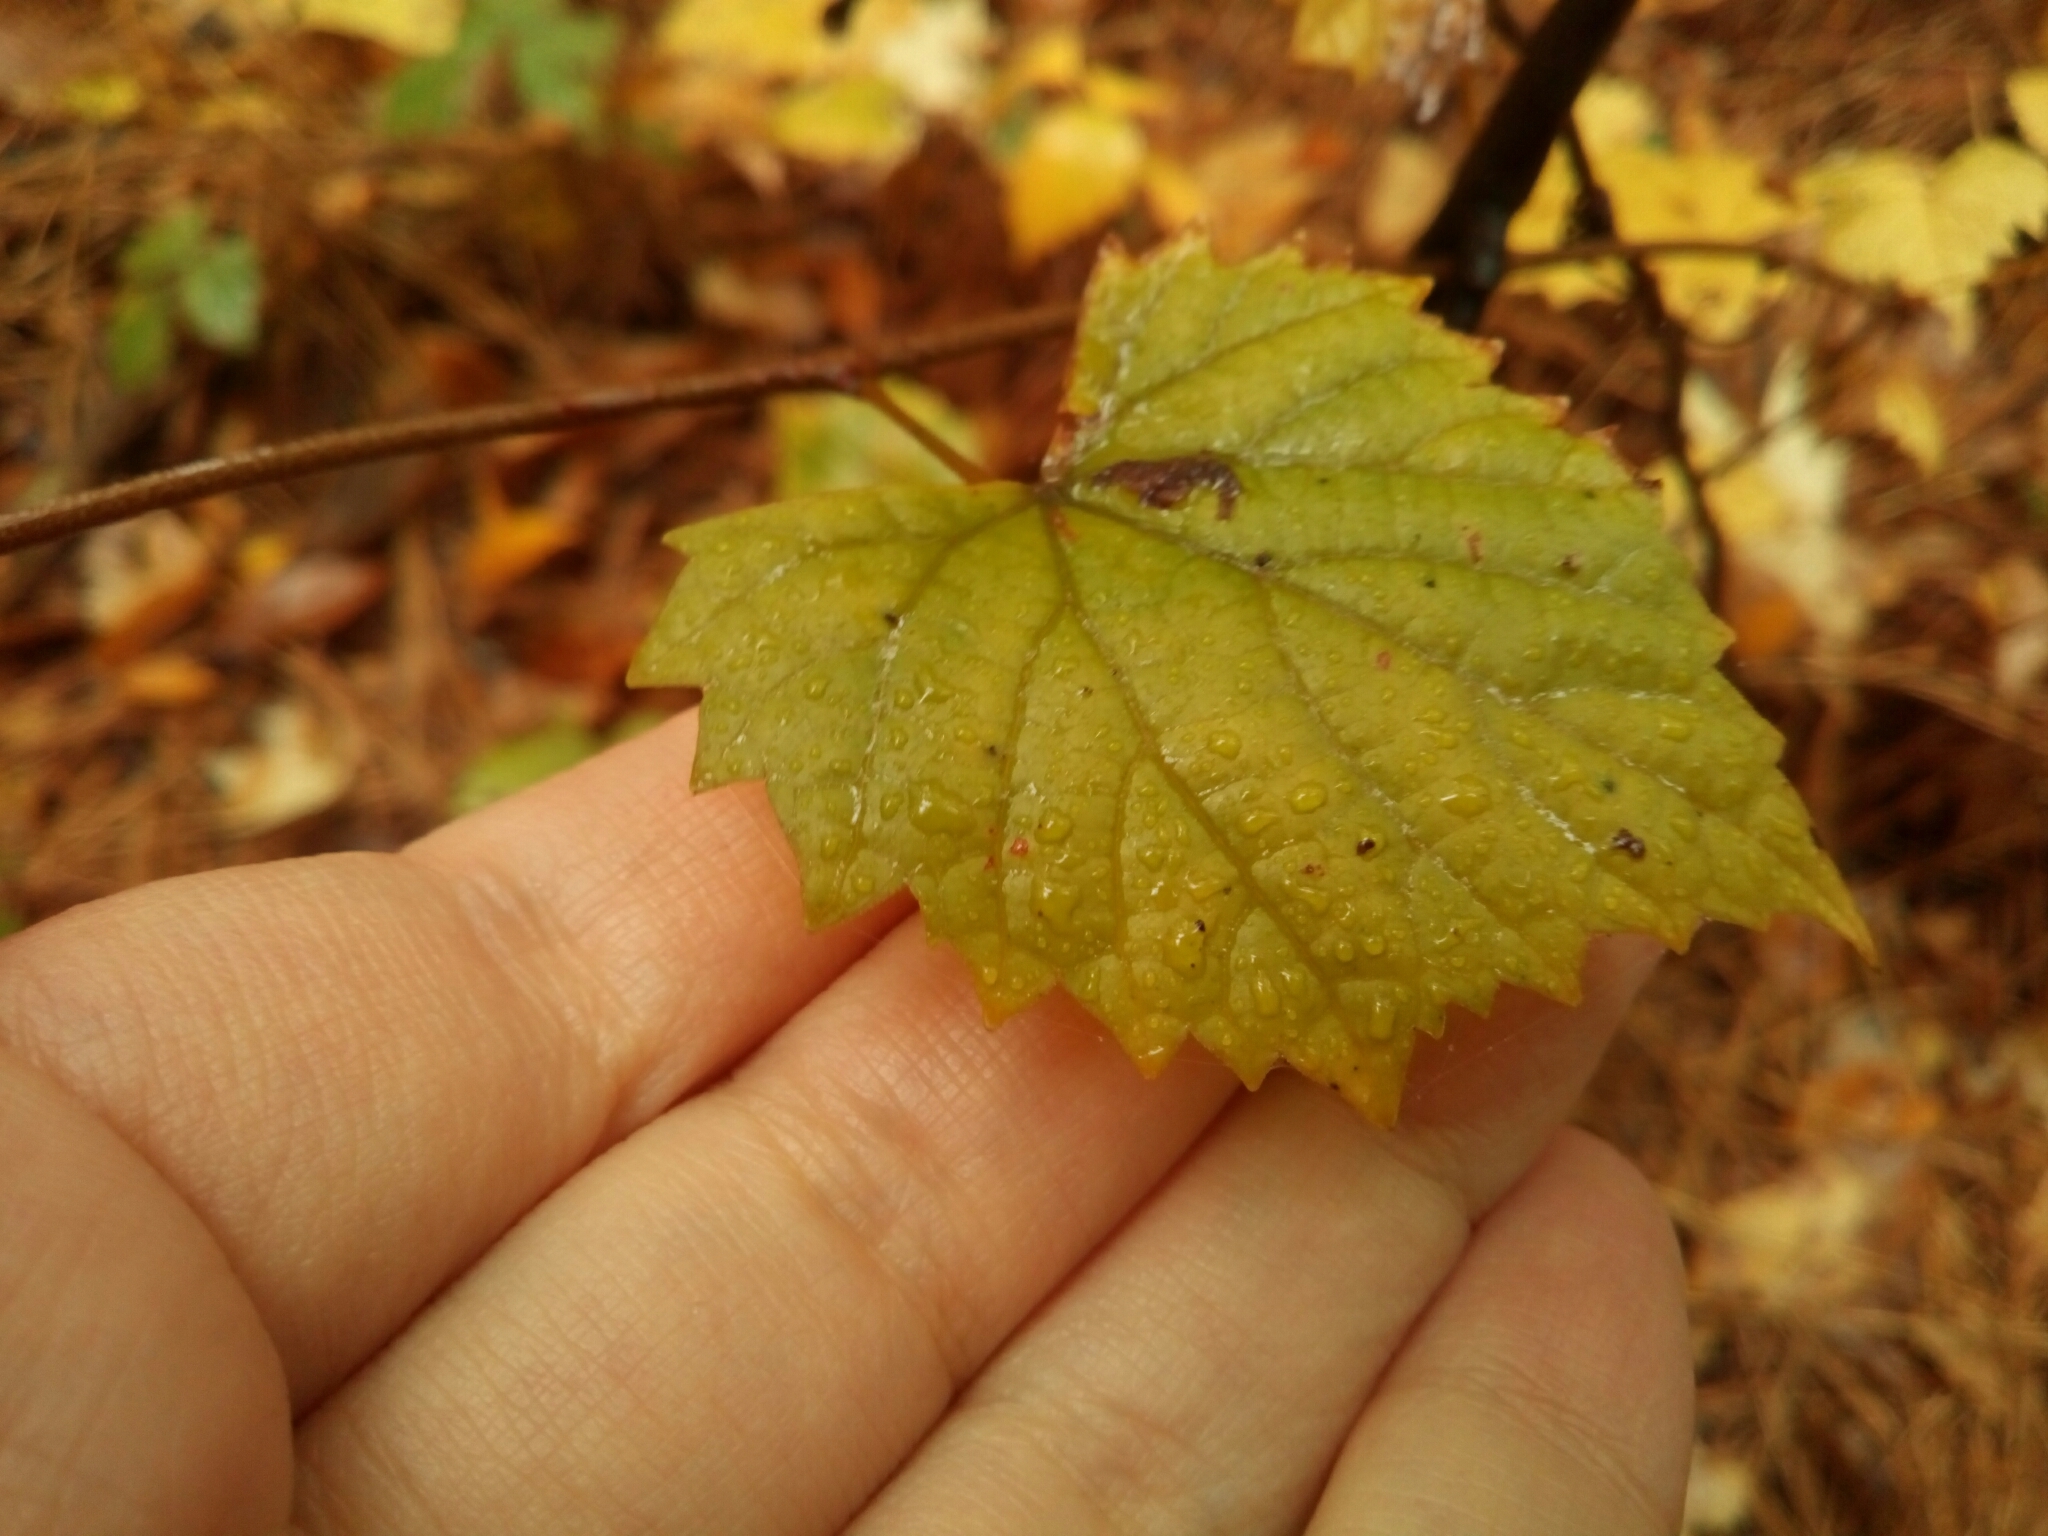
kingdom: Plantae
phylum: Tracheophyta
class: Magnoliopsida
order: Vitales
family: Vitaceae
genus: Vitis
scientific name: Vitis rotundifolia
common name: Muscadine grape
